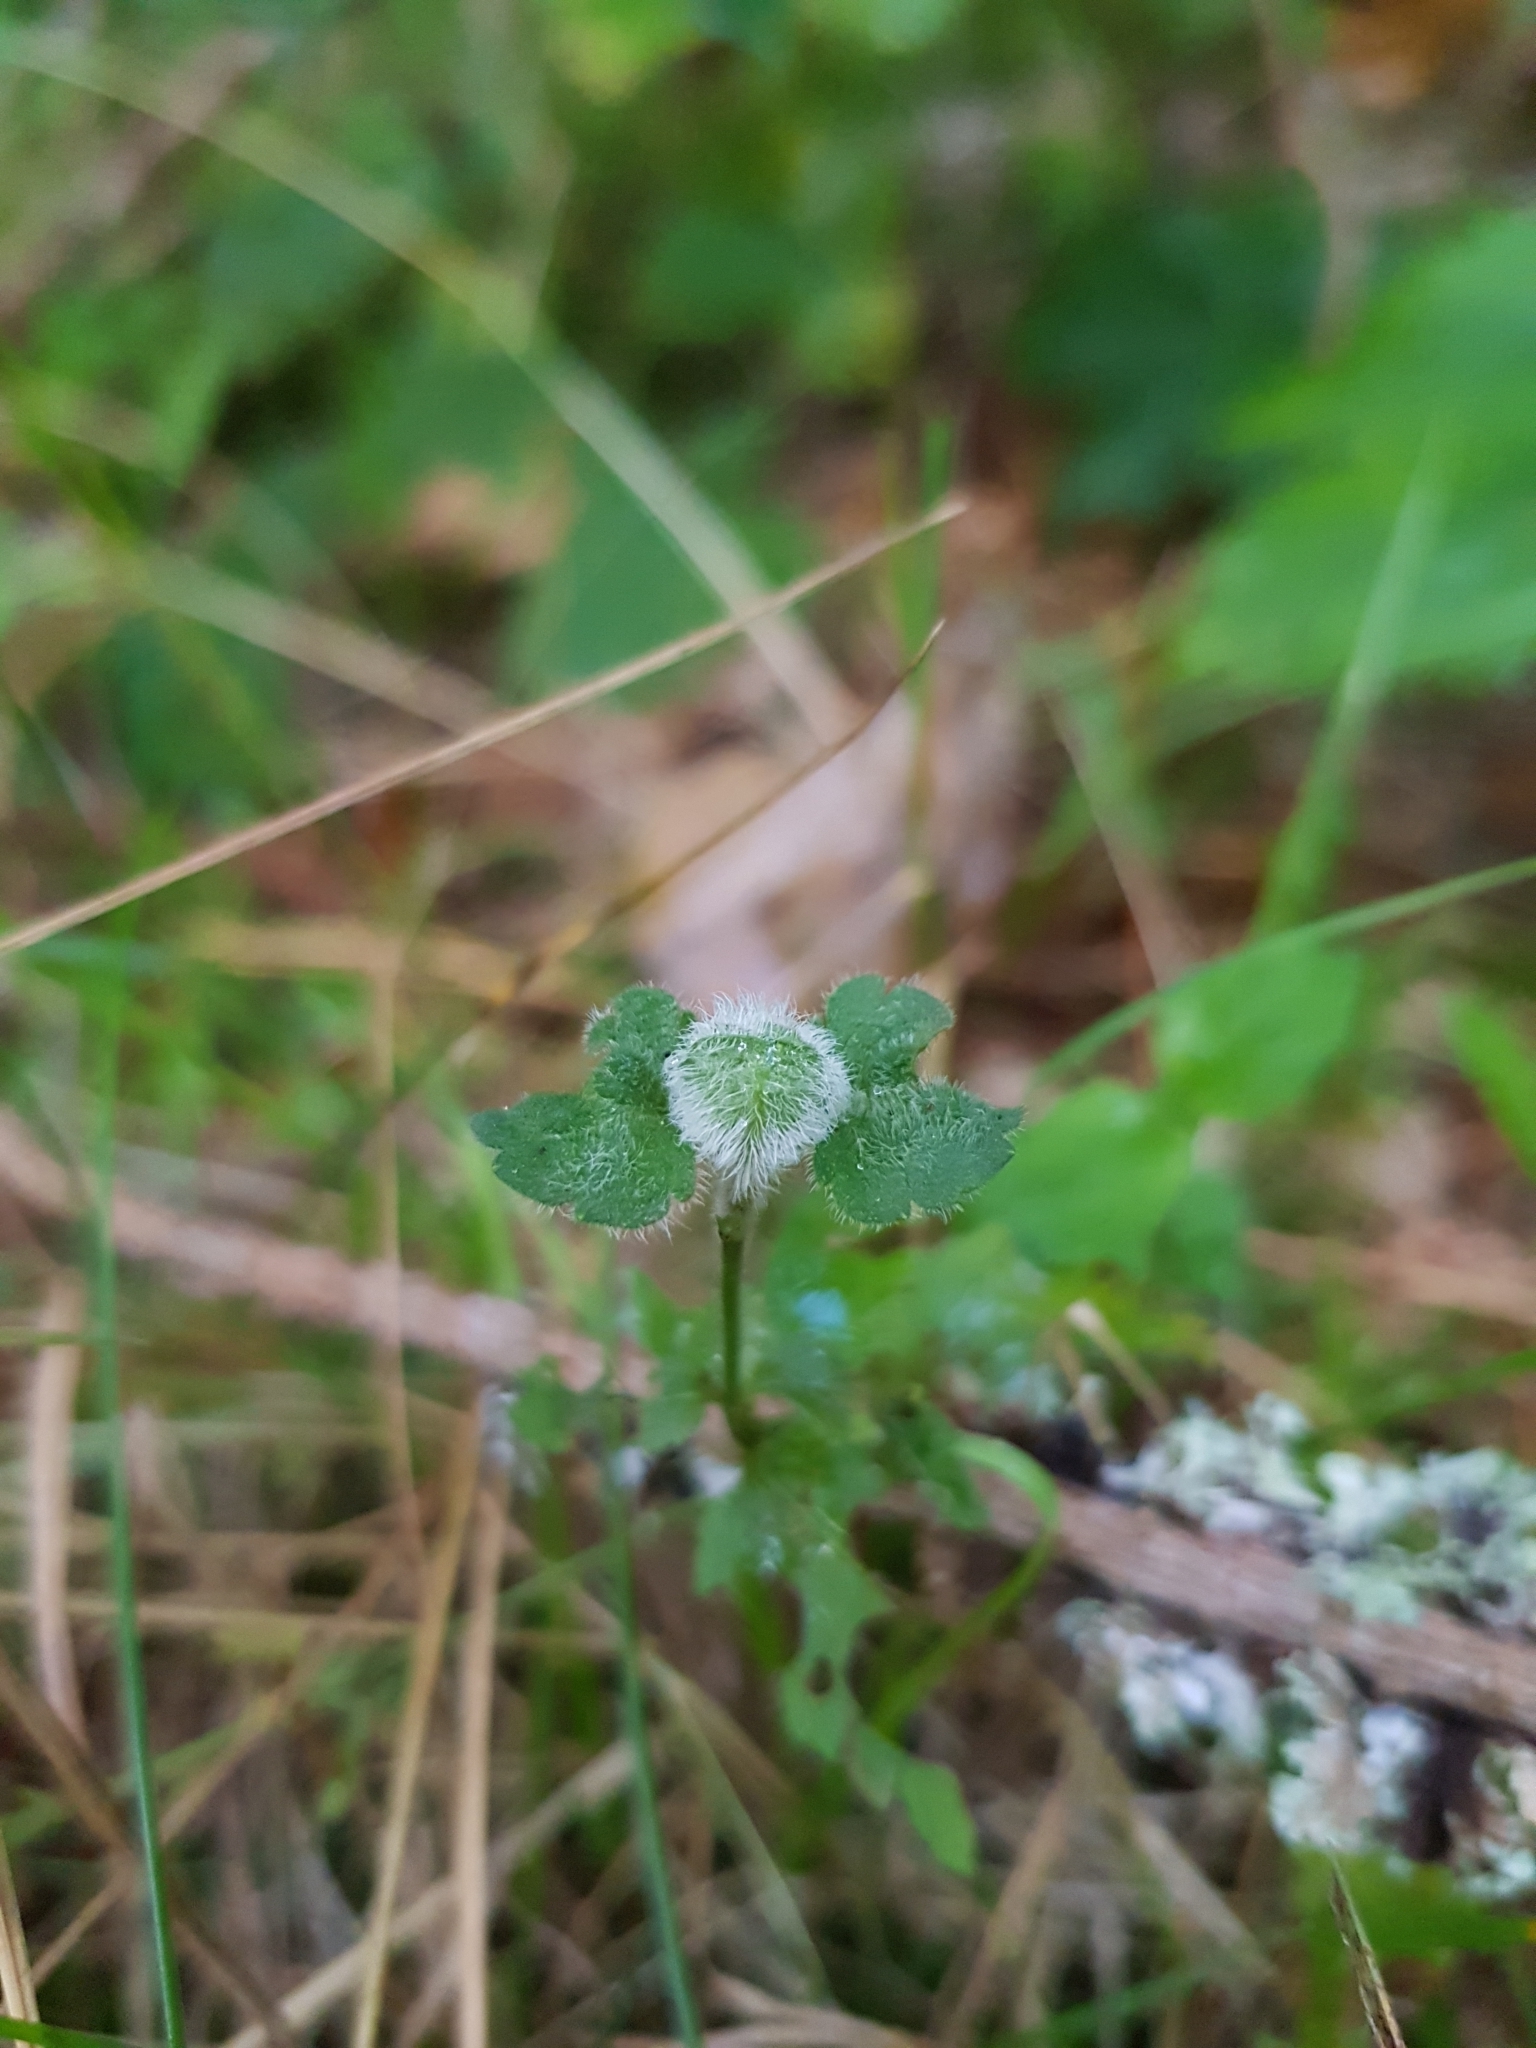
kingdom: Plantae
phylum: Tracheophyta
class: Magnoliopsida
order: Lamiales
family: Plantaginaceae
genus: Veronica
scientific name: Veronica chamaedrys
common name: Germander speedwell
